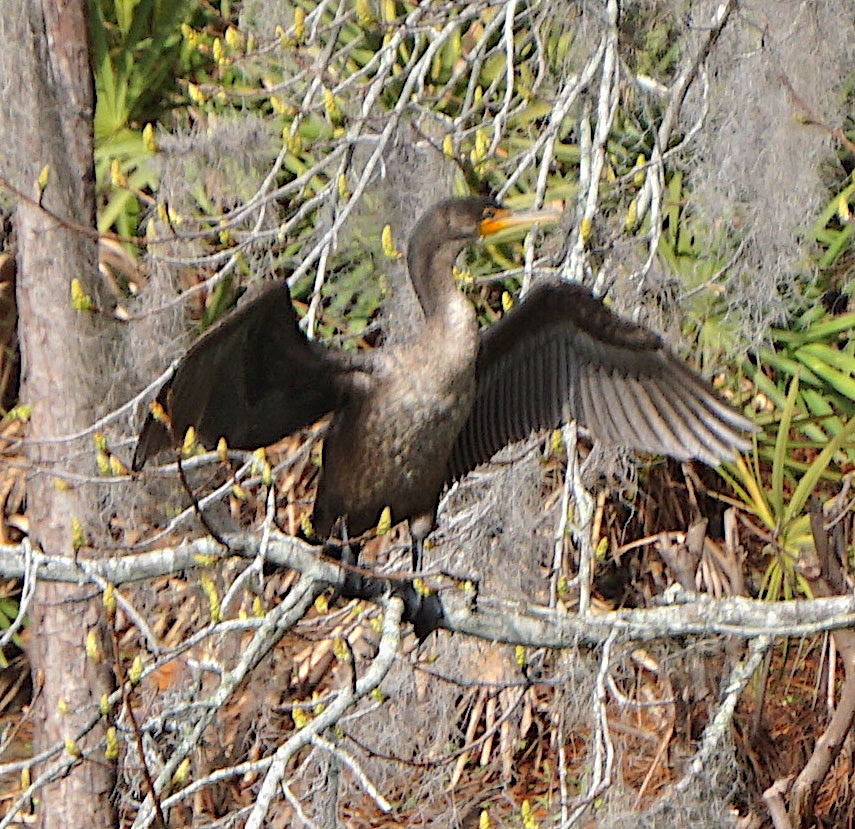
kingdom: Animalia
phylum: Chordata
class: Aves
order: Suliformes
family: Phalacrocoracidae
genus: Phalacrocorax
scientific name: Phalacrocorax auritus
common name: Double-crested cormorant
